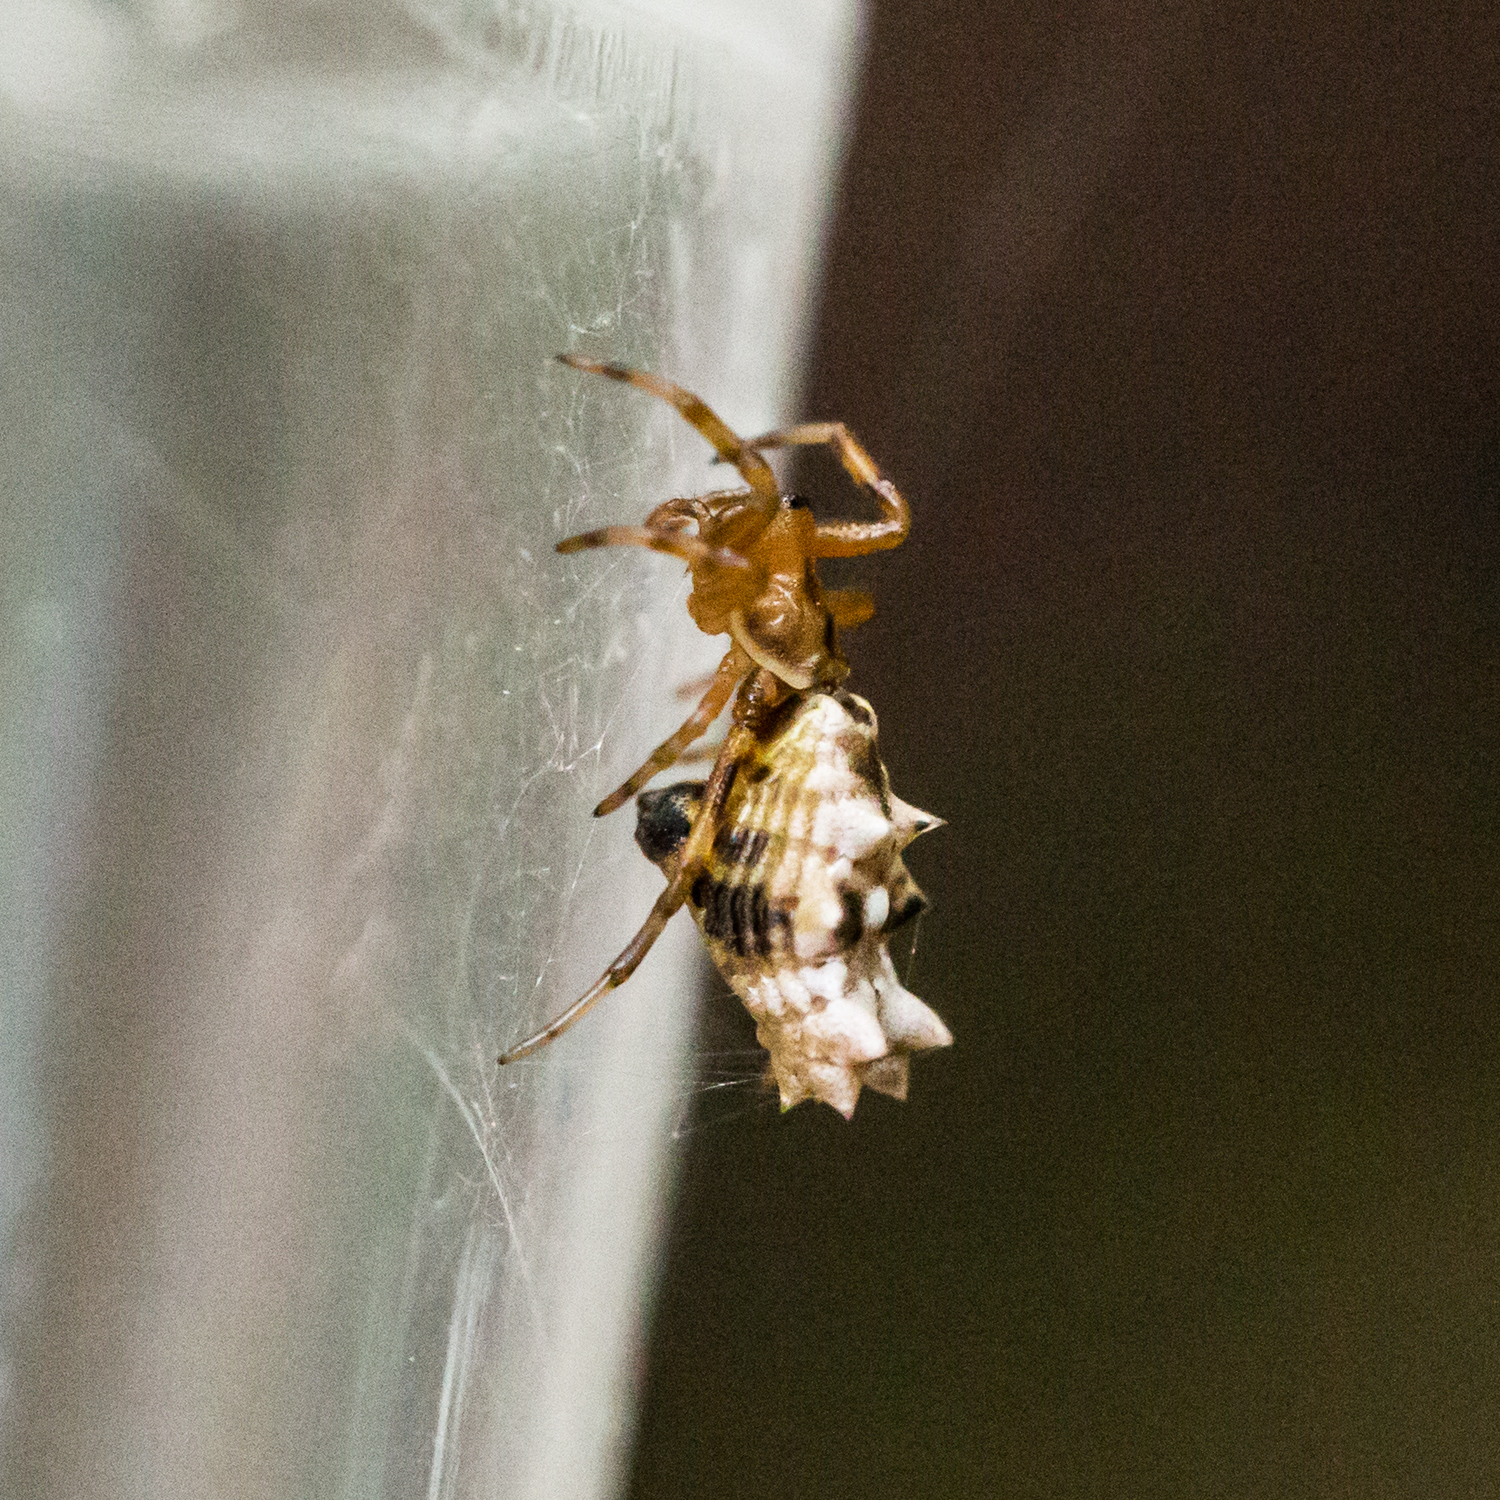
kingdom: Animalia
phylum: Arthropoda
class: Arachnida
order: Araneae
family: Araneidae
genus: Micrathena
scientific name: Micrathena gracilis
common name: Orb weavers
